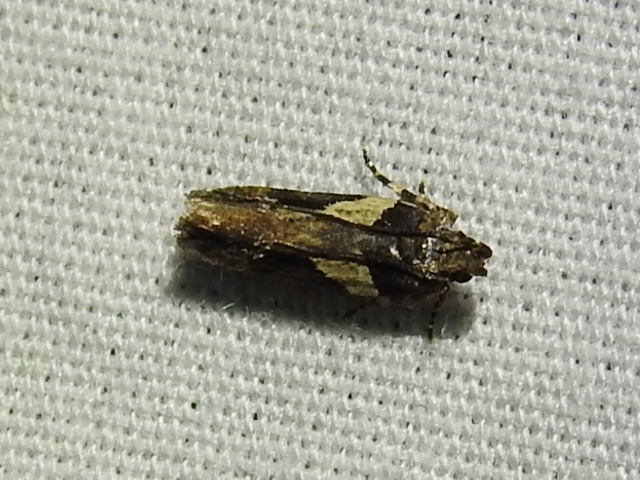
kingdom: Animalia
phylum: Arthropoda
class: Insecta
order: Lepidoptera
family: Gelechiidae
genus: Friseria
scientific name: Friseria acaciella
